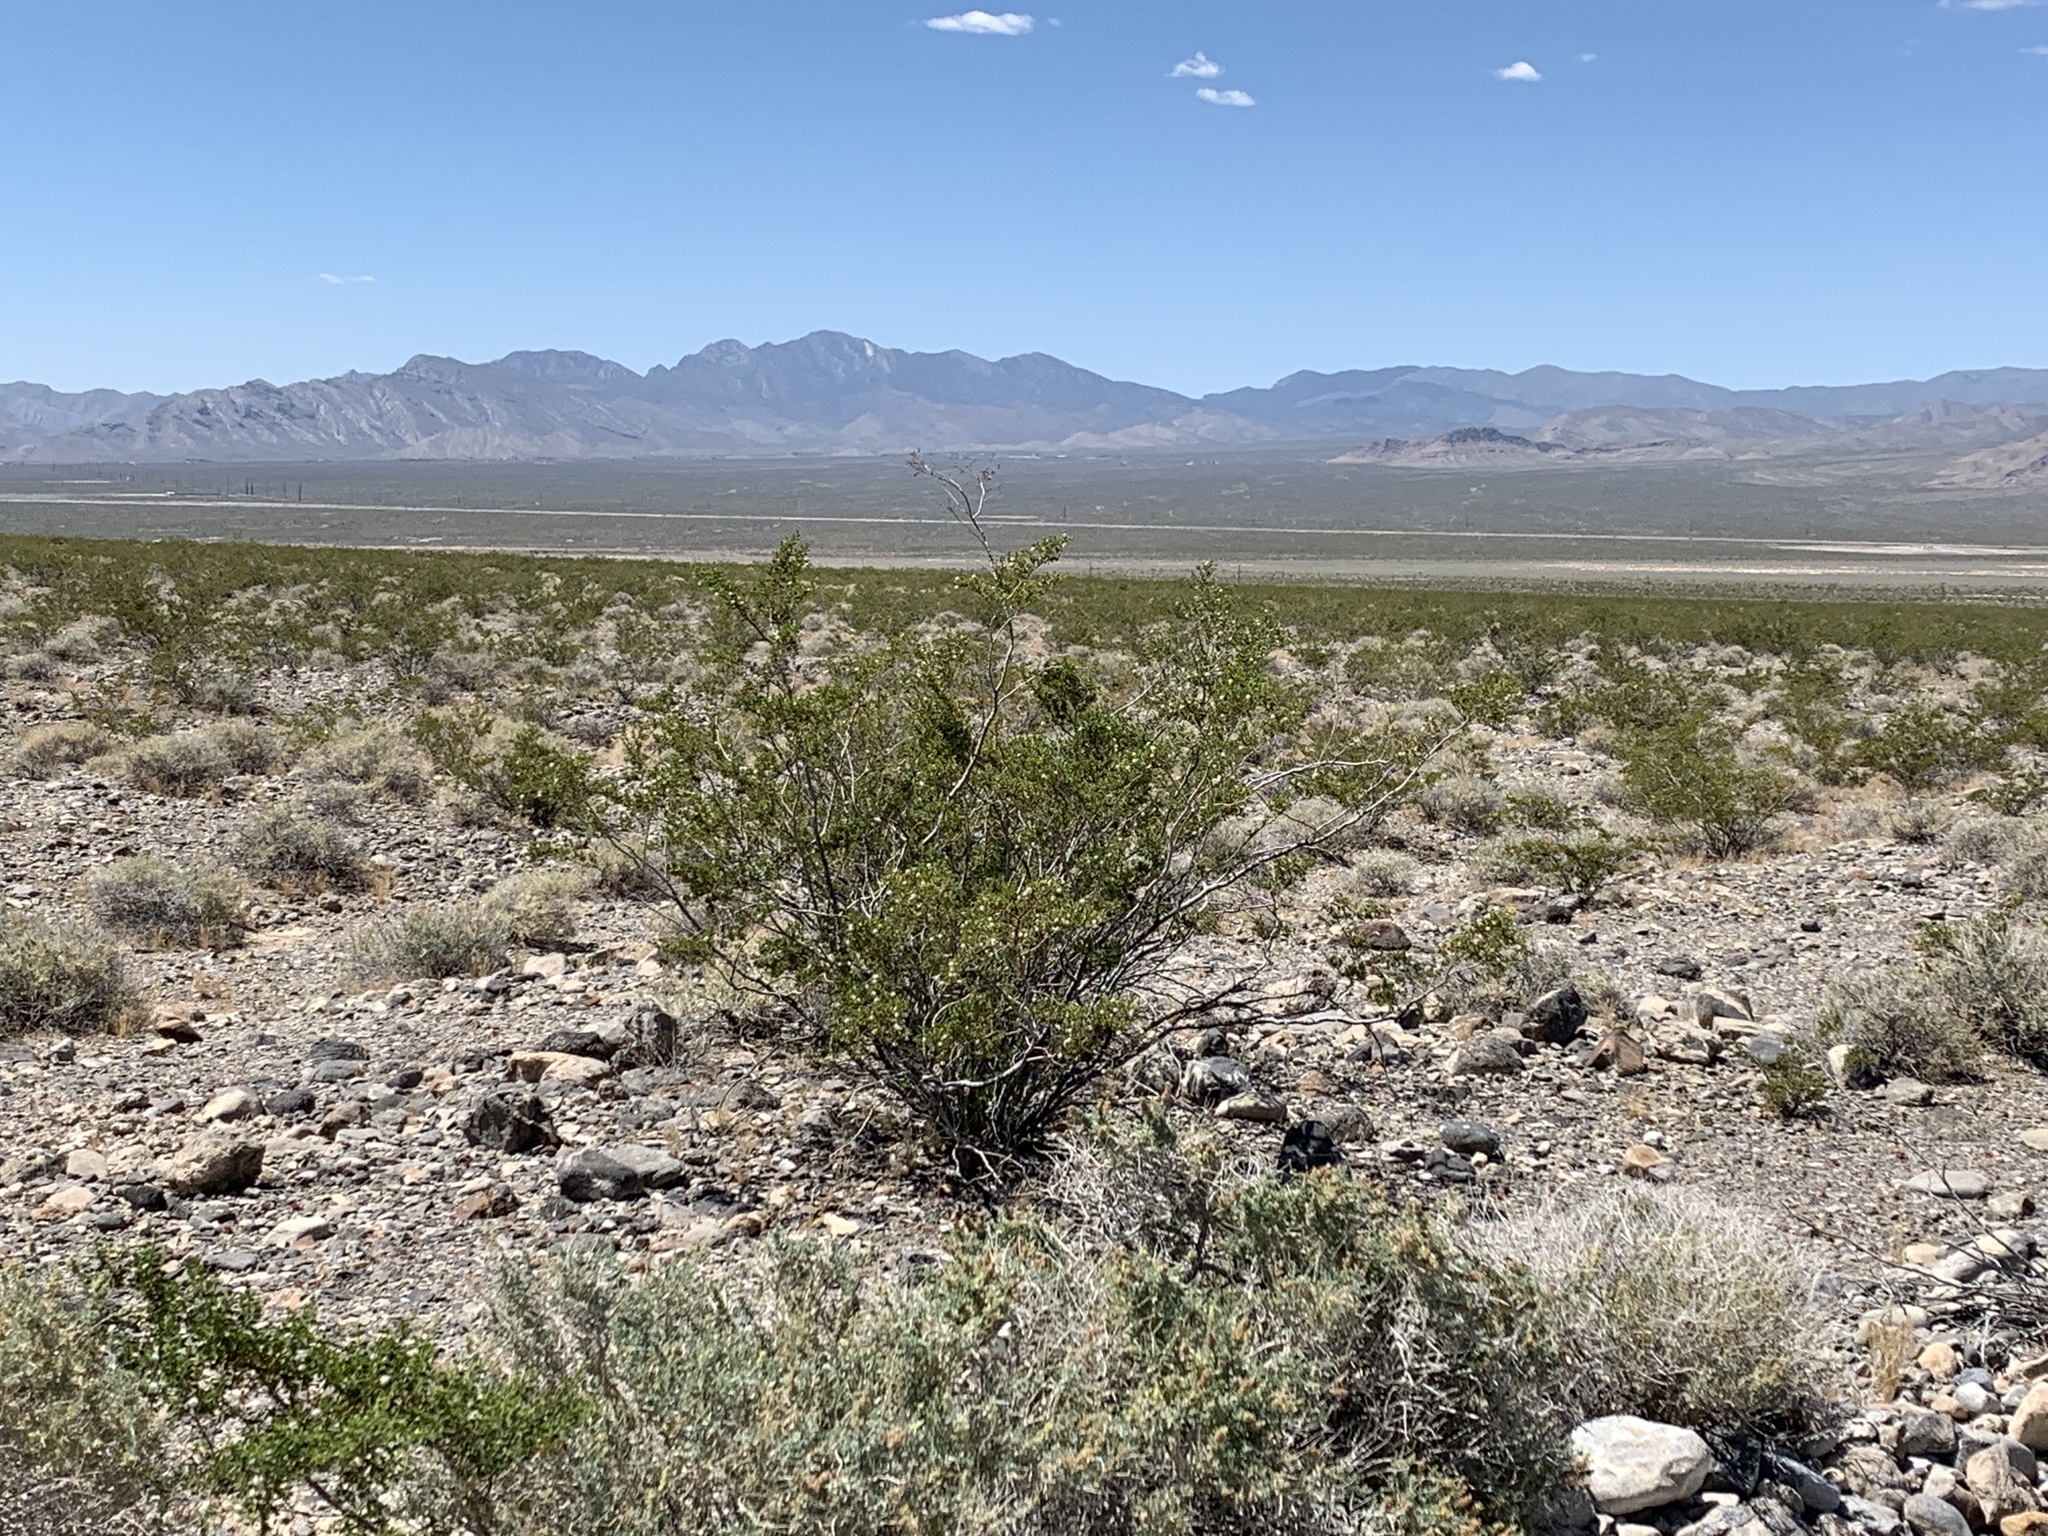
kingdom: Plantae
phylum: Tracheophyta
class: Magnoliopsida
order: Zygophyllales
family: Zygophyllaceae
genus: Larrea
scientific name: Larrea tridentata
